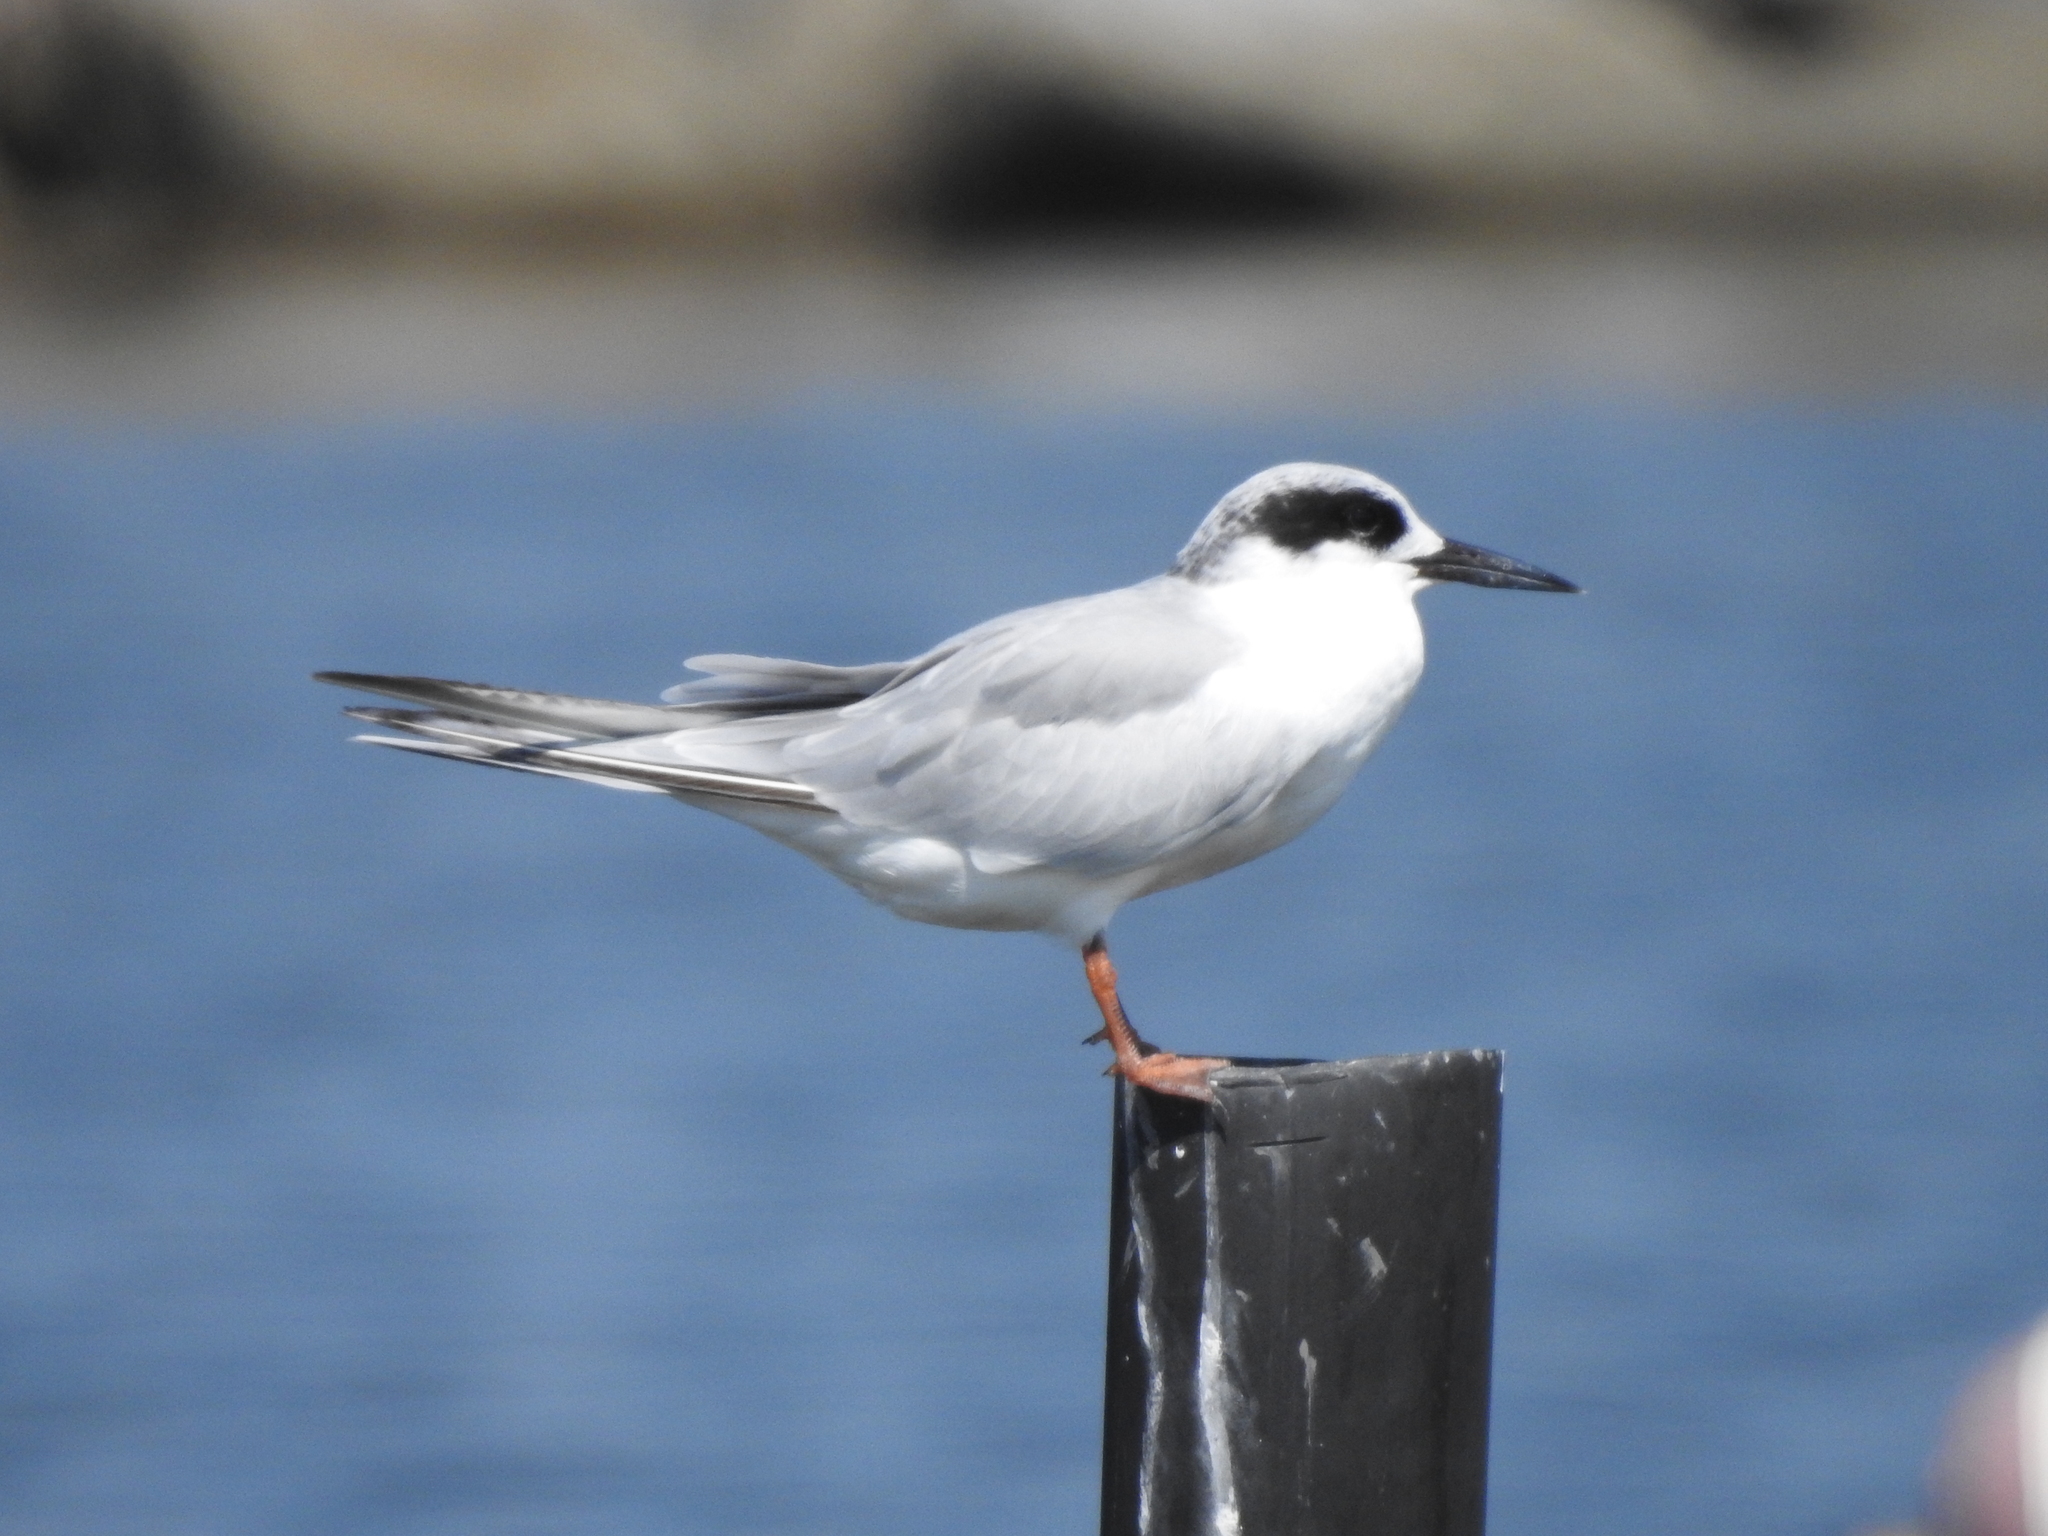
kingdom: Animalia
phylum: Chordata
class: Aves
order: Charadriiformes
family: Laridae
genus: Sterna
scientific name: Sterna forsteri
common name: Forster's tern
